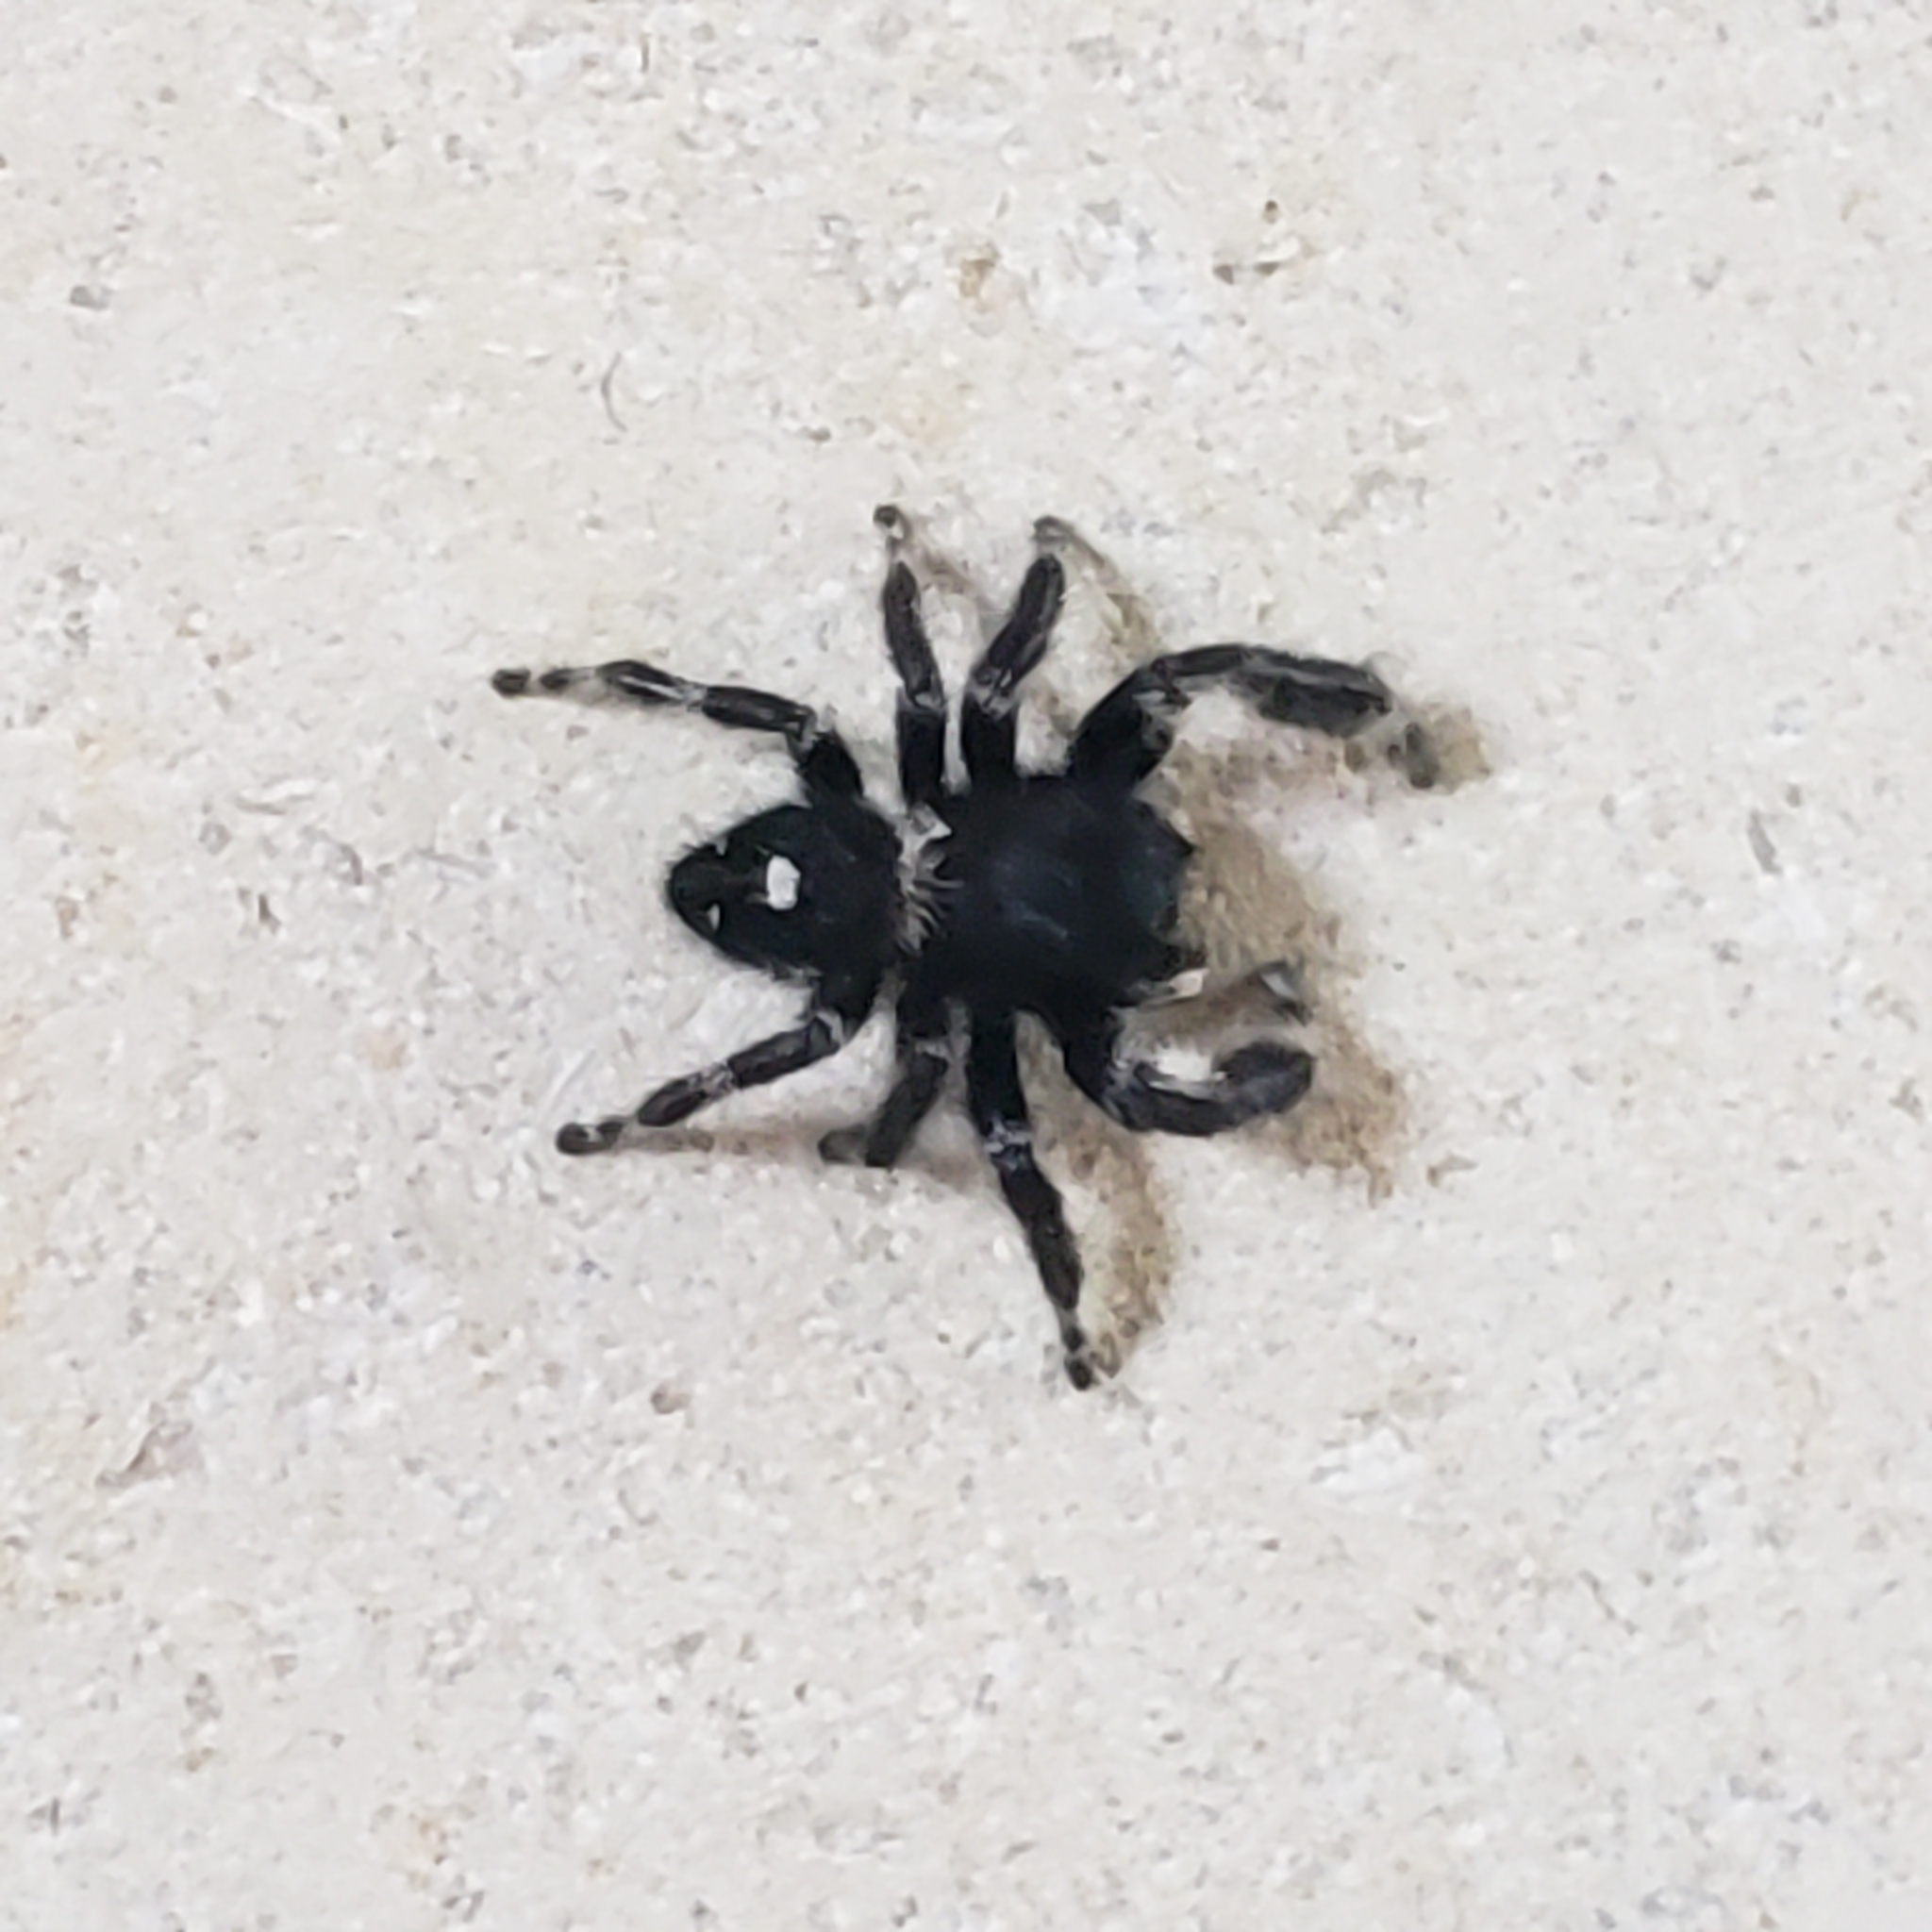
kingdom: Animalia
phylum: Arthropoda
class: Arachnida
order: Araneae
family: Salticidae
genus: Phidippus
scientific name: Phidippus audax
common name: Bold jumper
